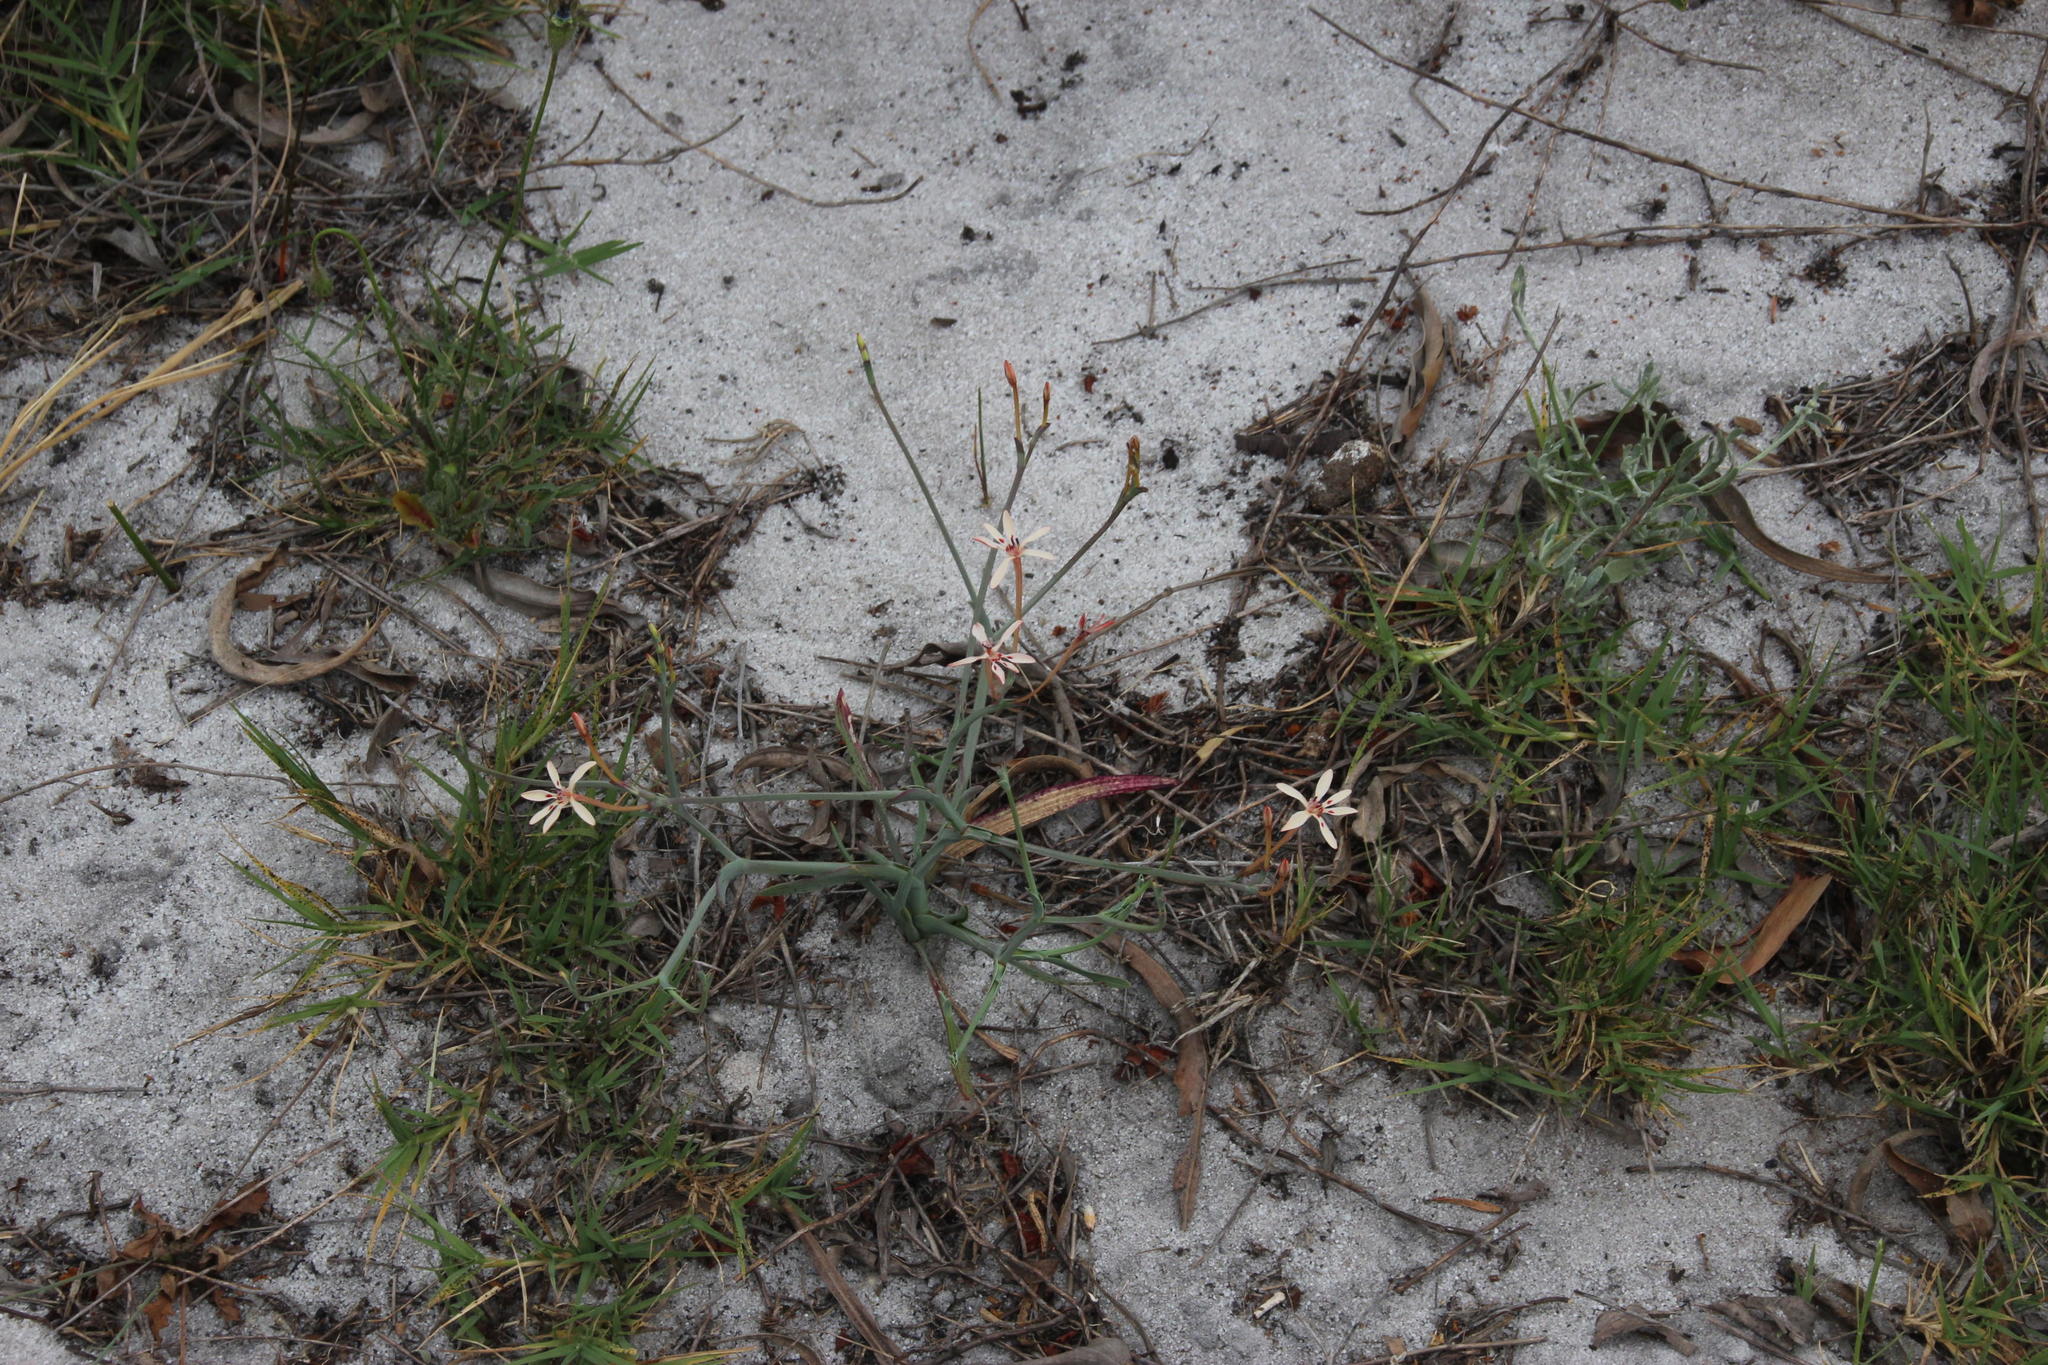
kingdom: Plantae
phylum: Tracheophyta
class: Liliopsida
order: Asparagales
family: Iridaceae
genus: Lapeirousia
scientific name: Lapeirousia anceps
